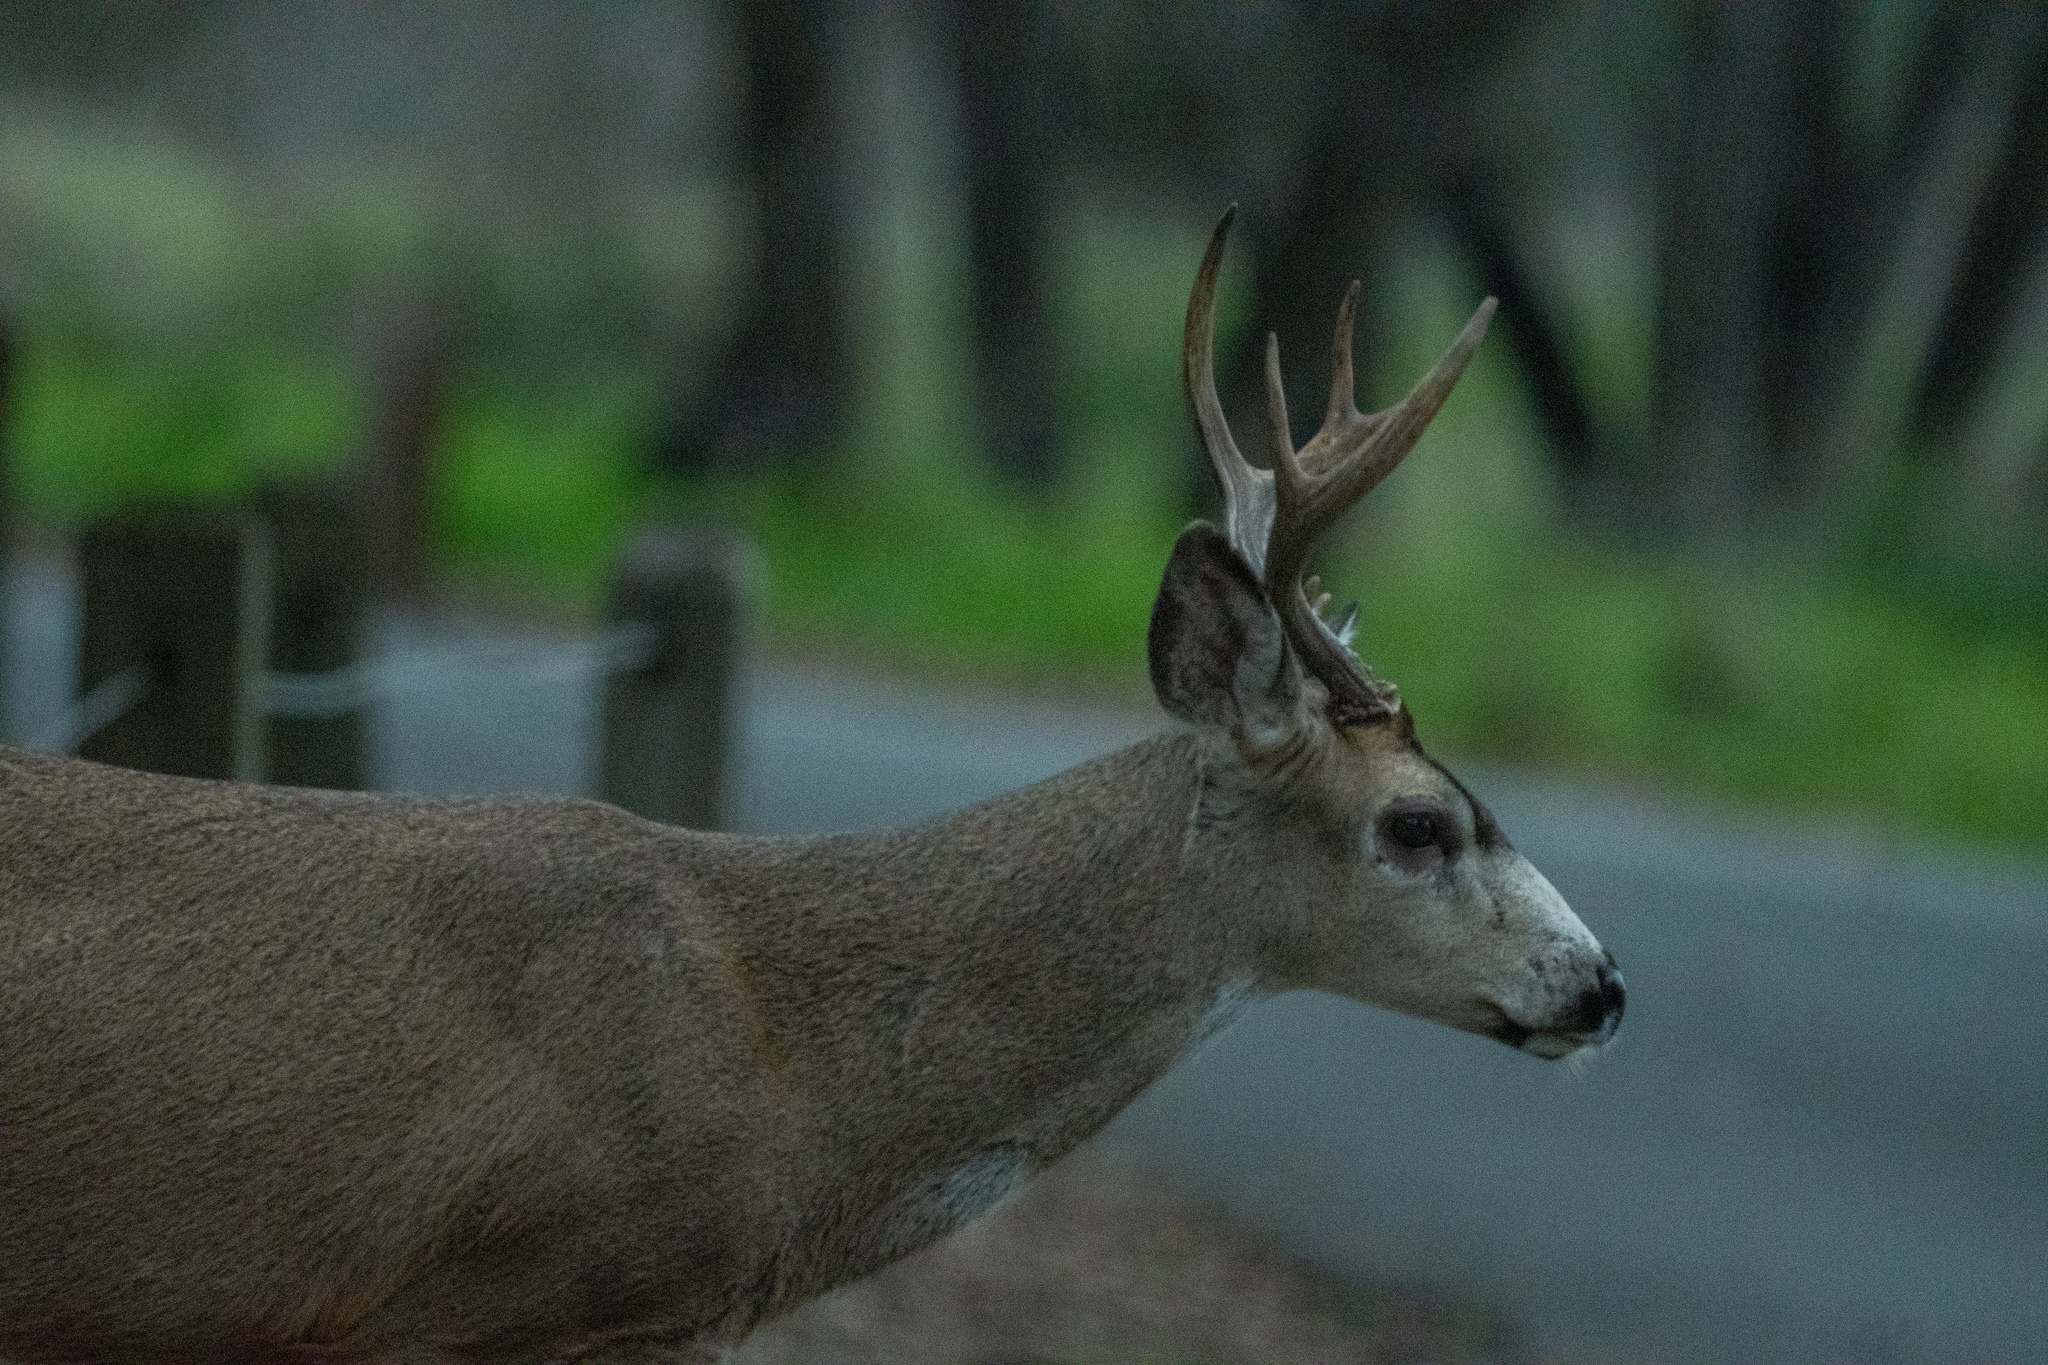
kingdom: Animalia
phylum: Chordata
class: Mammalia
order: Artiodactyla
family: Cervidae
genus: Odocoileus
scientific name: Odocoileus hemionus
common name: Mule deer
